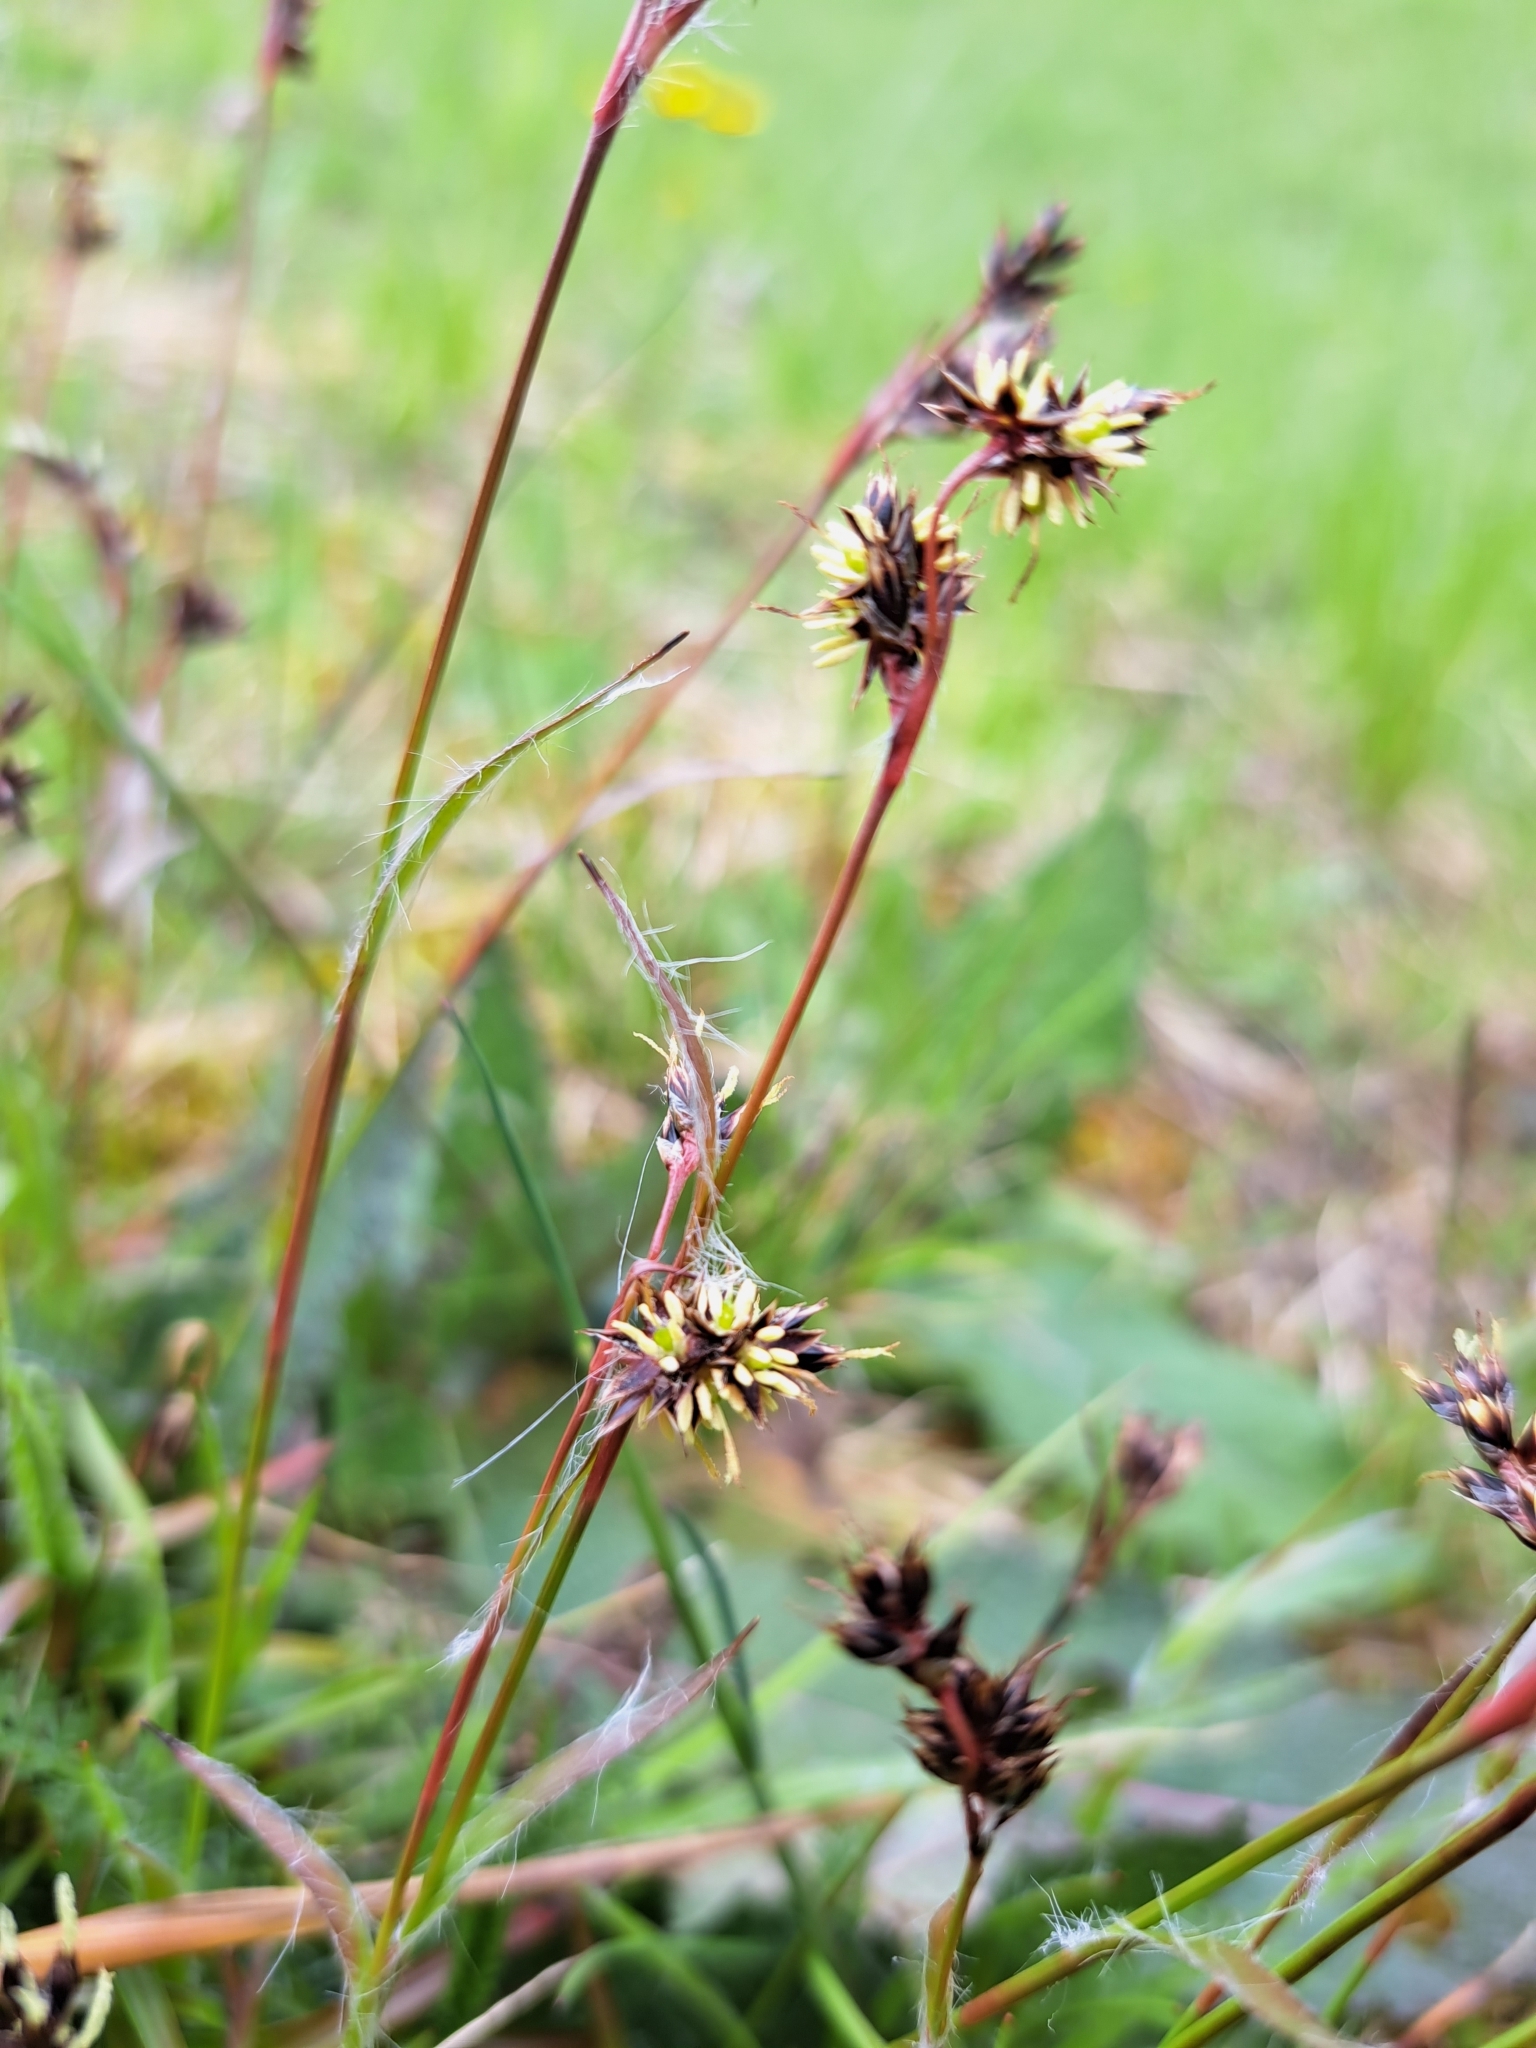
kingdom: Plantae
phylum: Tracheophyta
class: Liliopsida
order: Poales
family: Juncaceae
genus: Luzula
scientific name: Luzula campestris
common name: Field wood-rush
